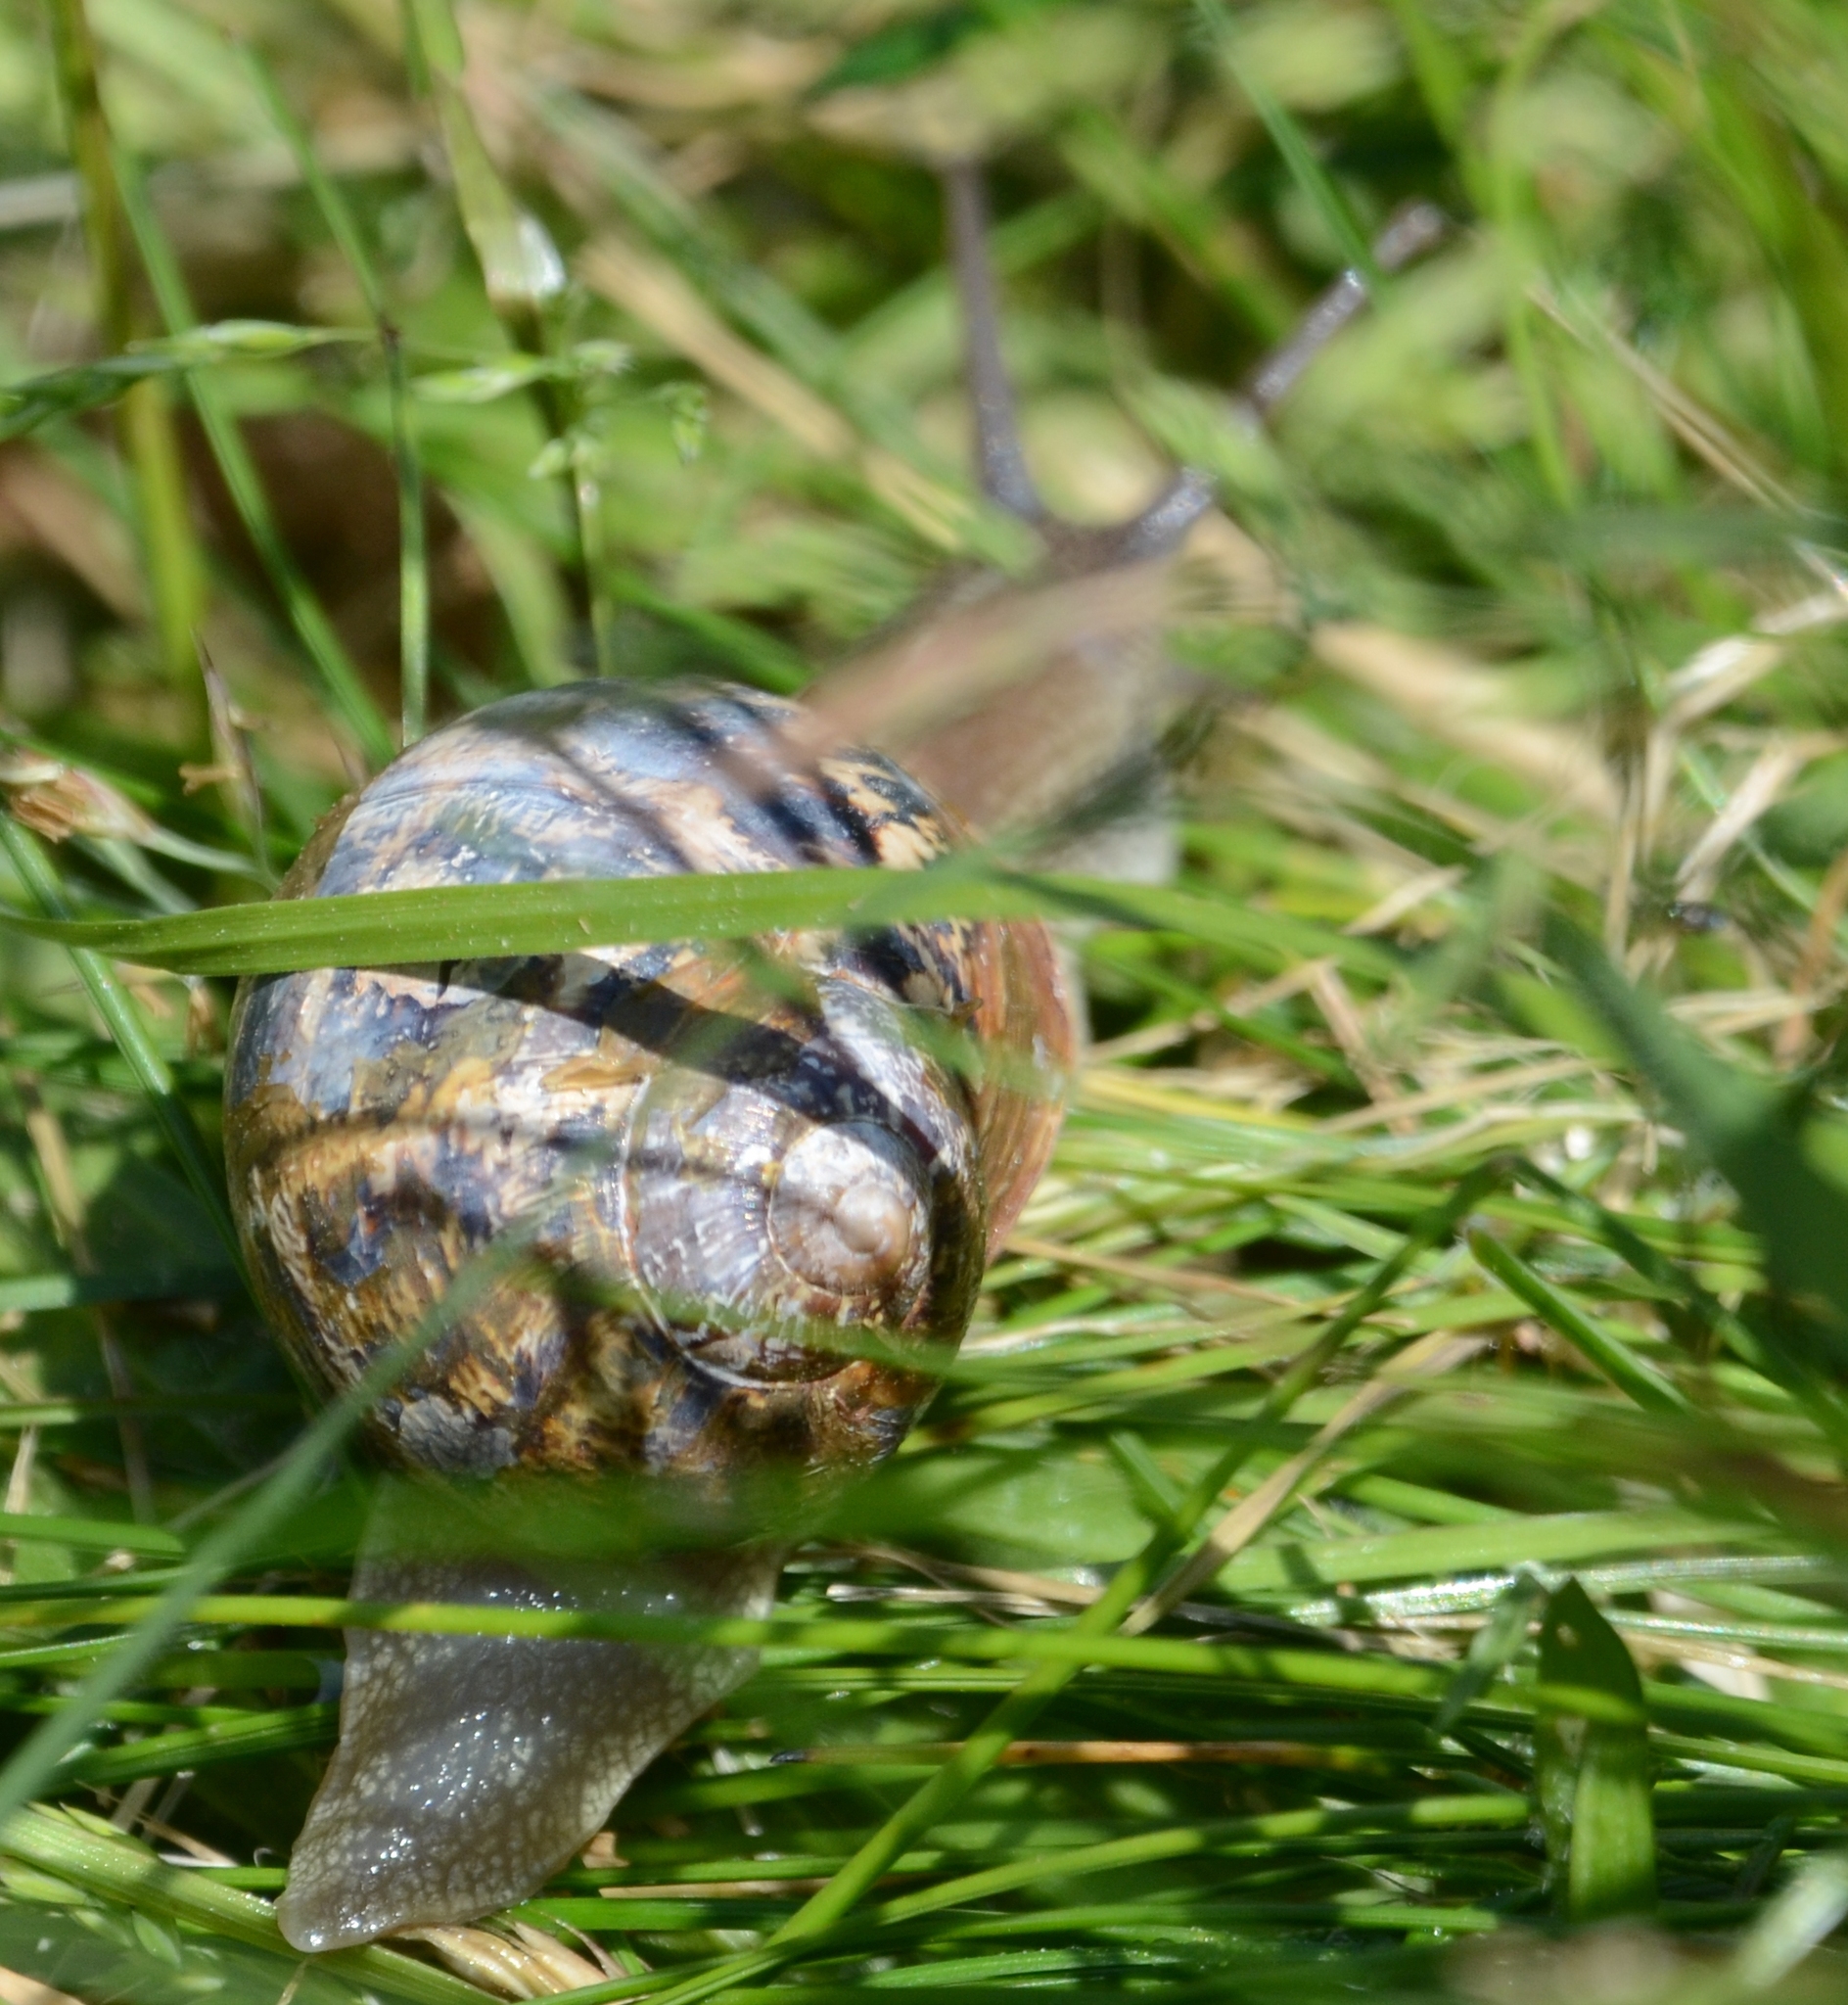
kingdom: Animalia
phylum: Mollusca
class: Gastropoda
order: Stylommatophora
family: Helicidae
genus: Cornu
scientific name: Cornu aspersum
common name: Brown garden snail
